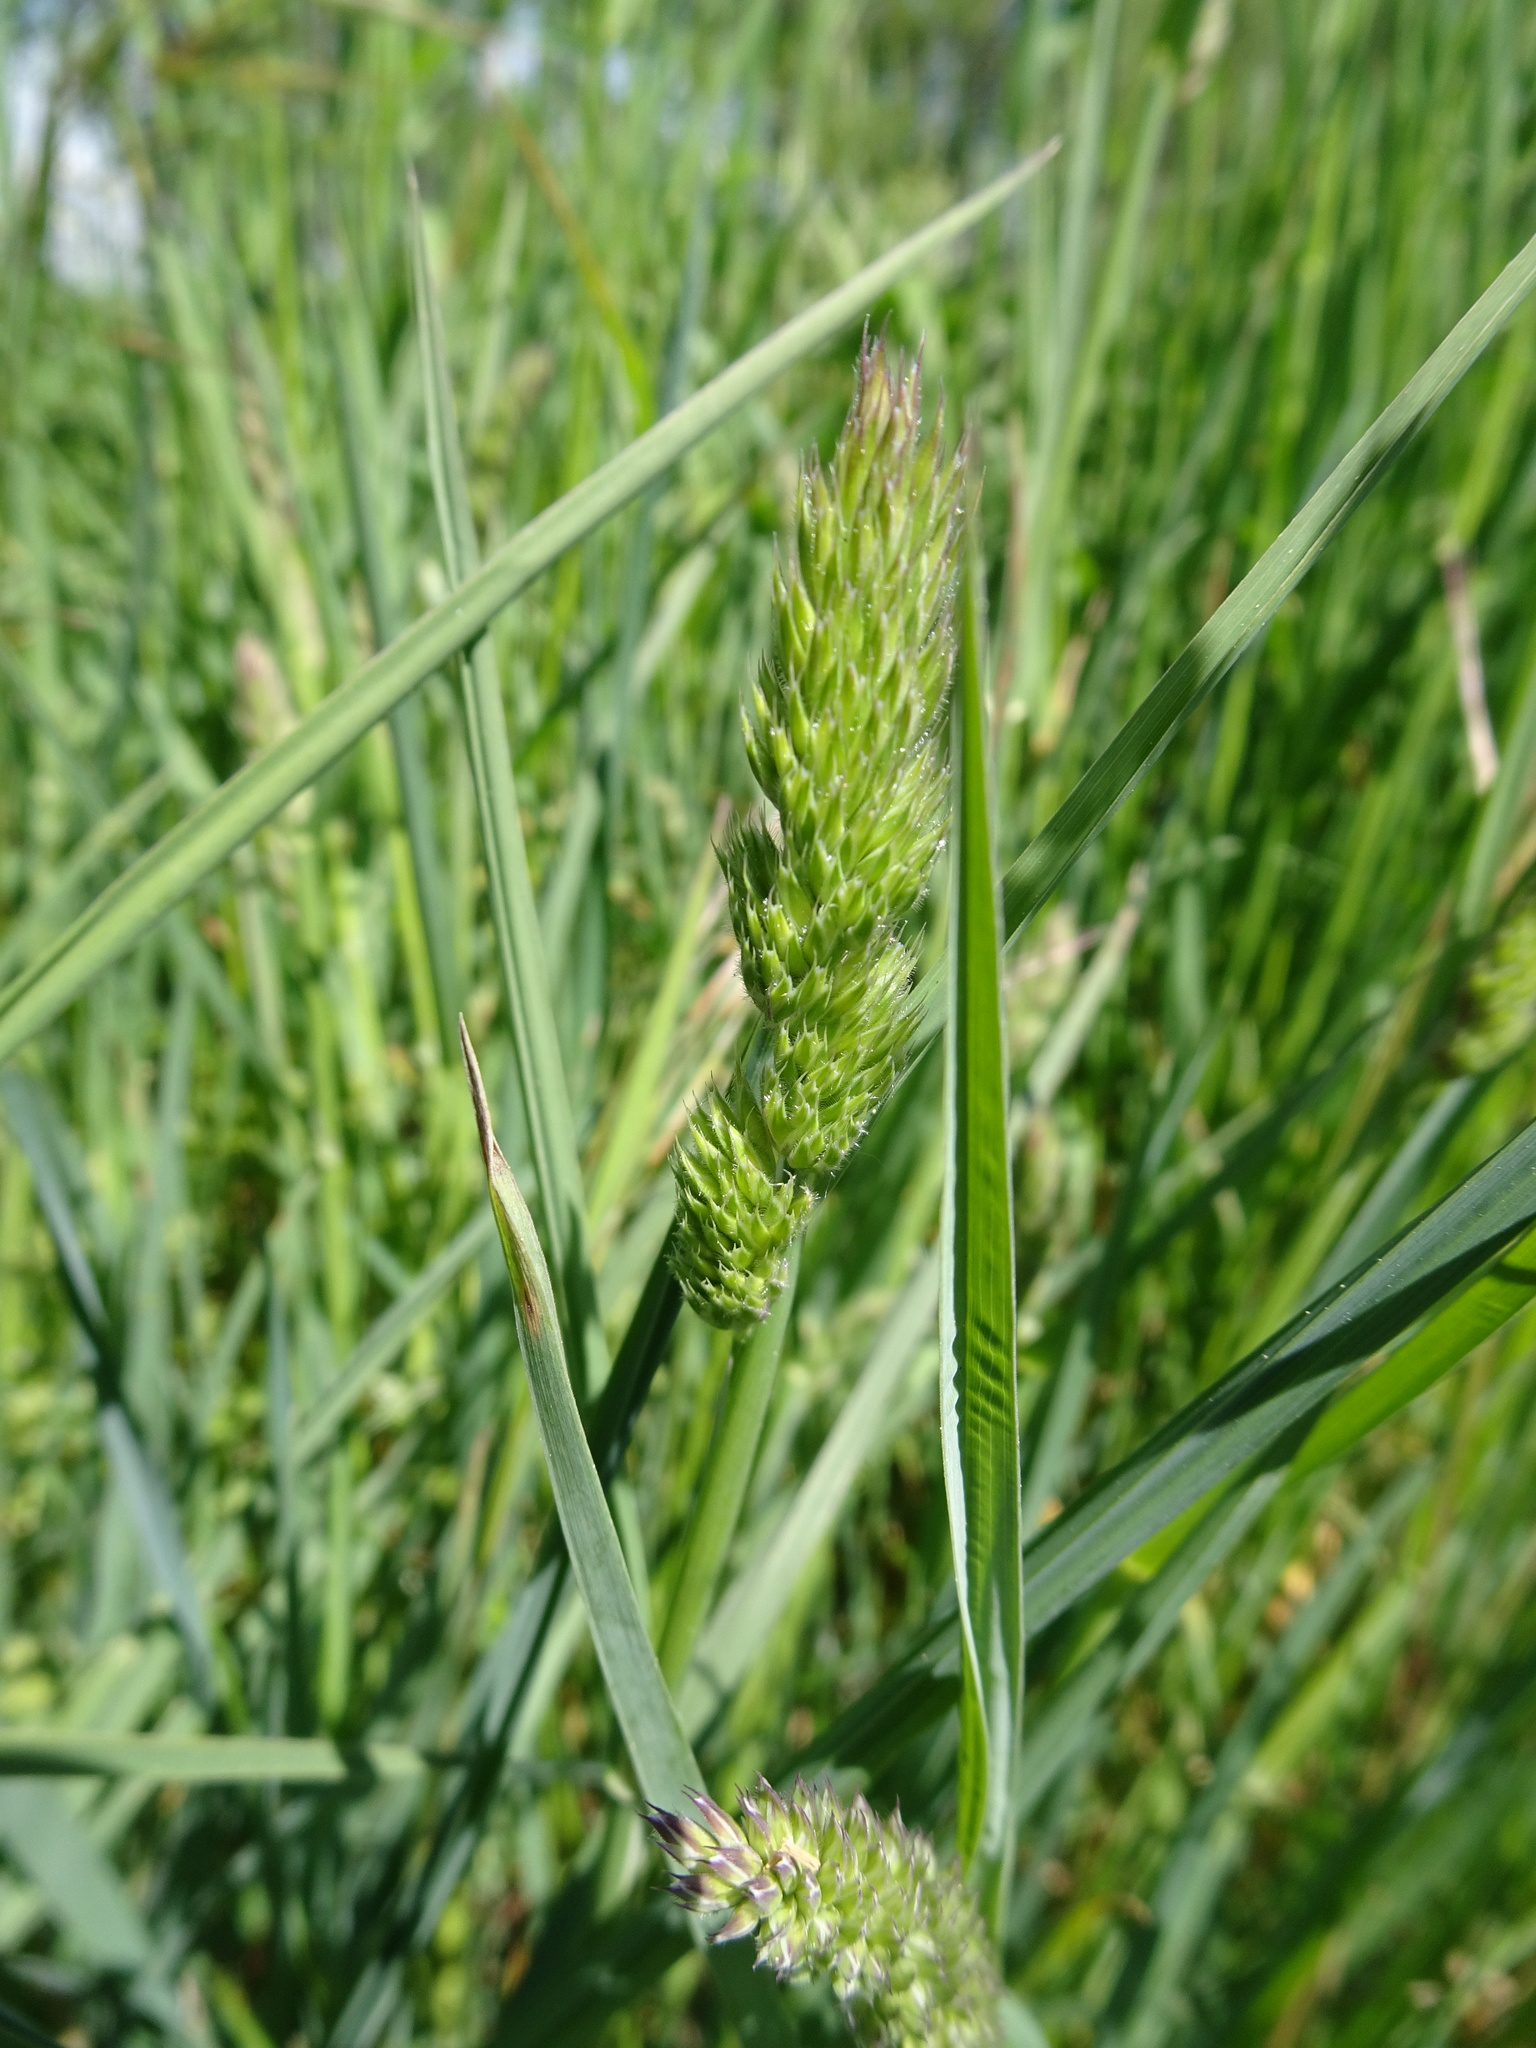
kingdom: Plantae
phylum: Tracheophyta
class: Liliopsida
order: Poales
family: Poaceae
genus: Dactylis
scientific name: Dactylis glomerata
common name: Orchardgrass
